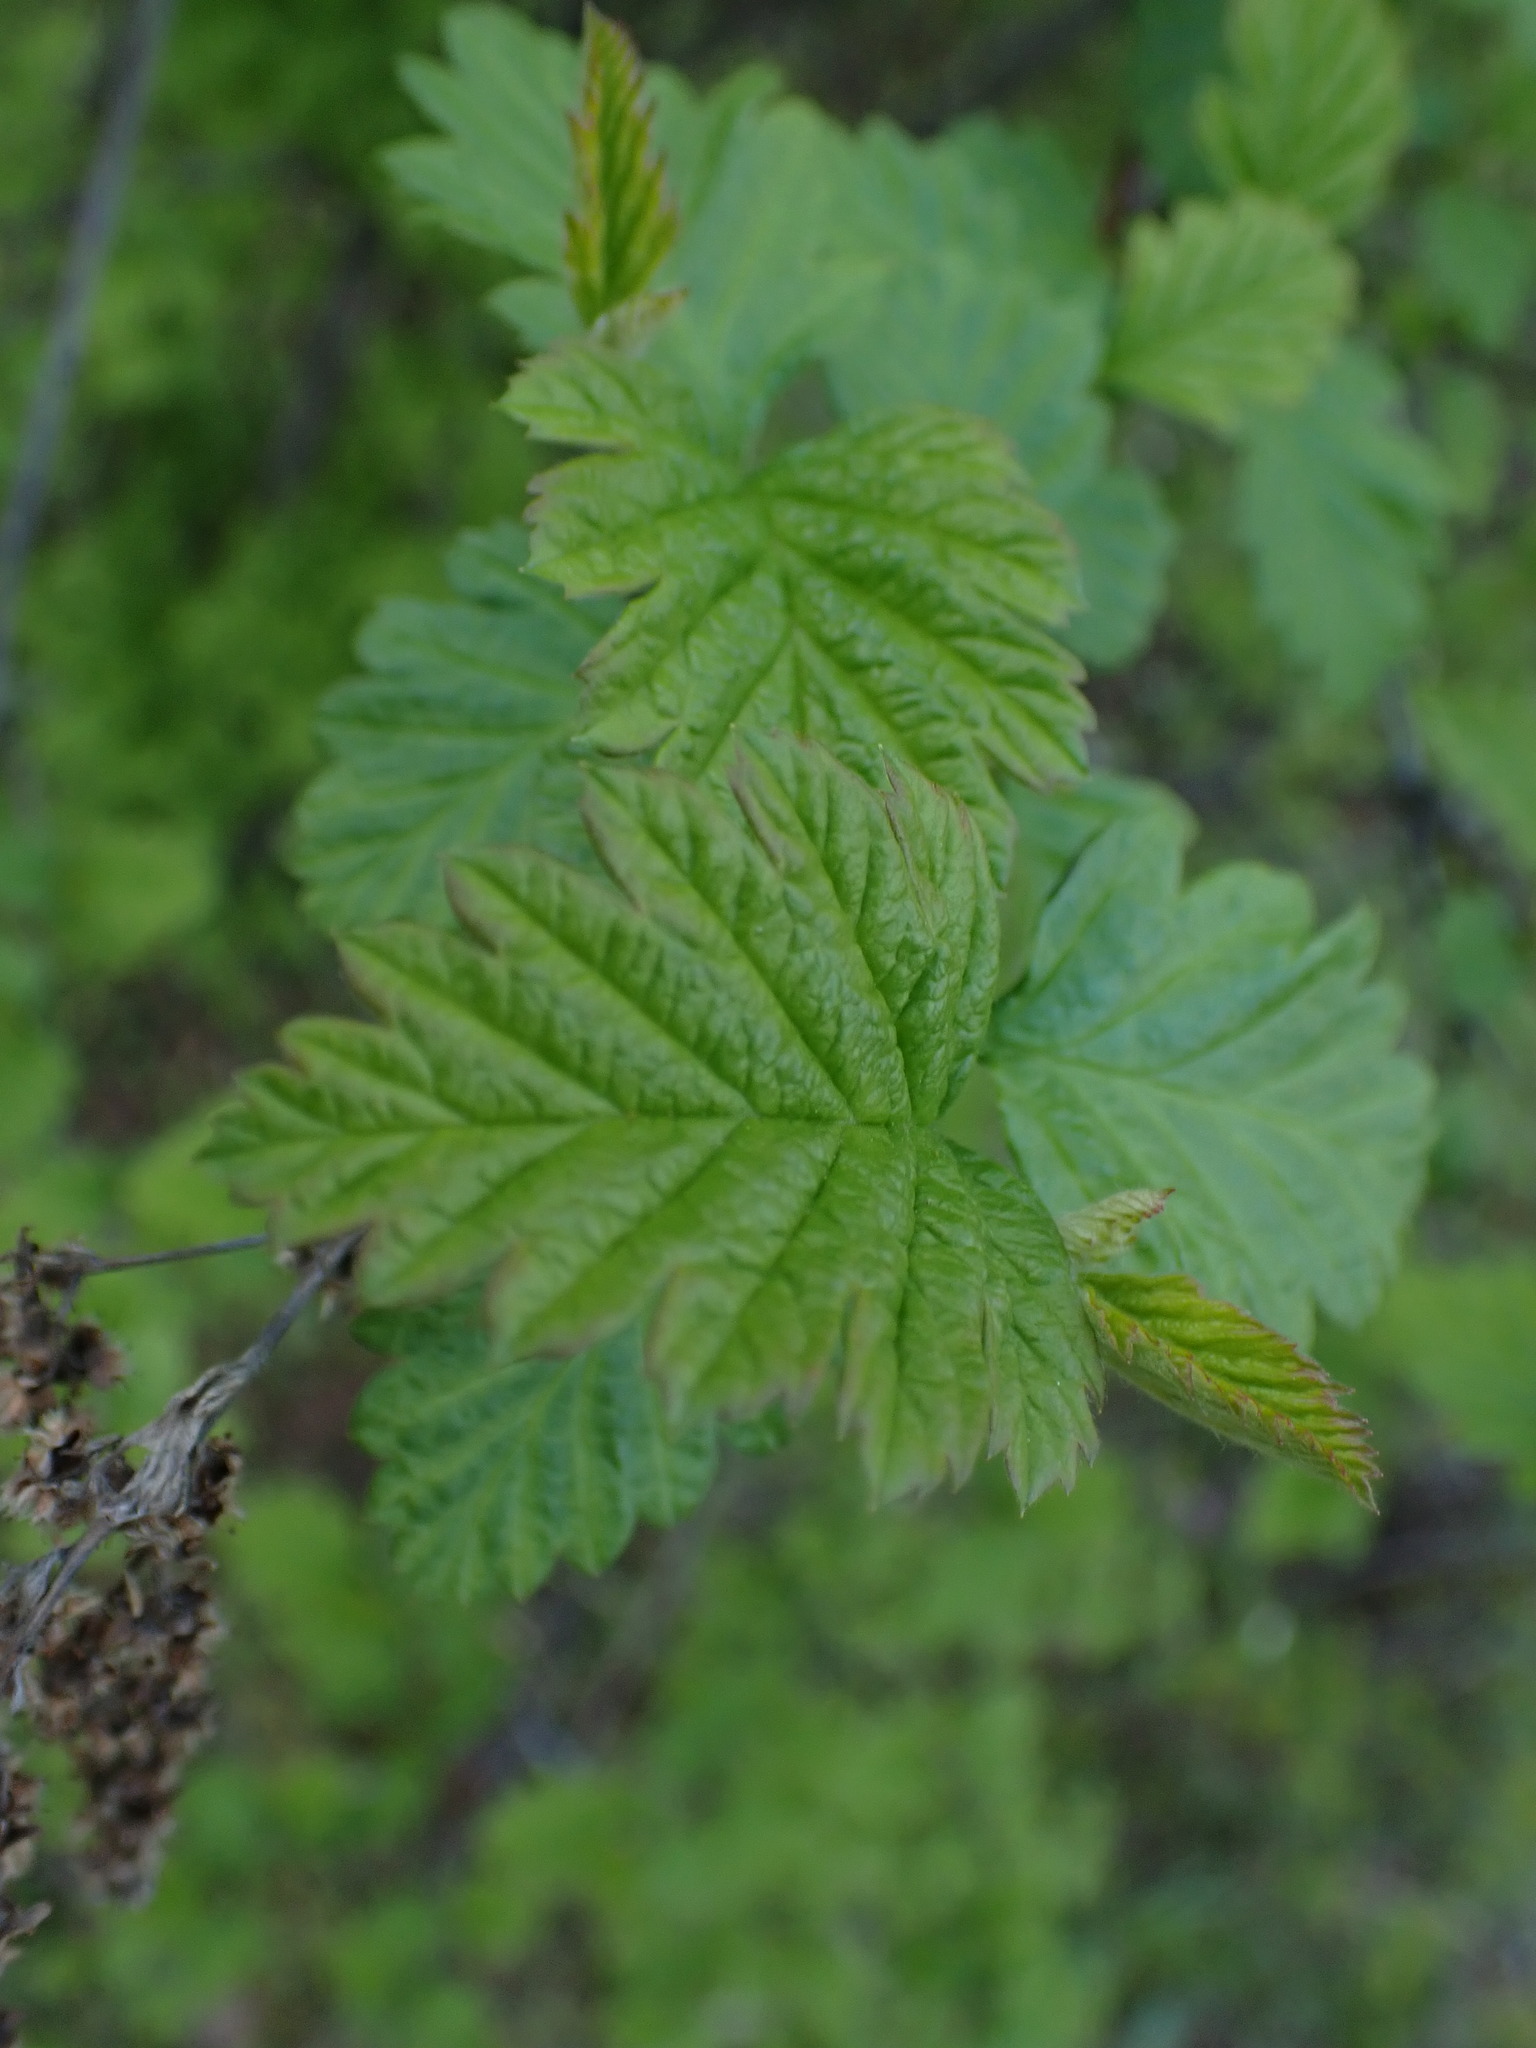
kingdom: Plantae
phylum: Tracheophyta
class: Magnoliopsida
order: Rosales
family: Rosaceae
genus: Holodiscus
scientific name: Holodiscus discolor
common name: Oceanspray
